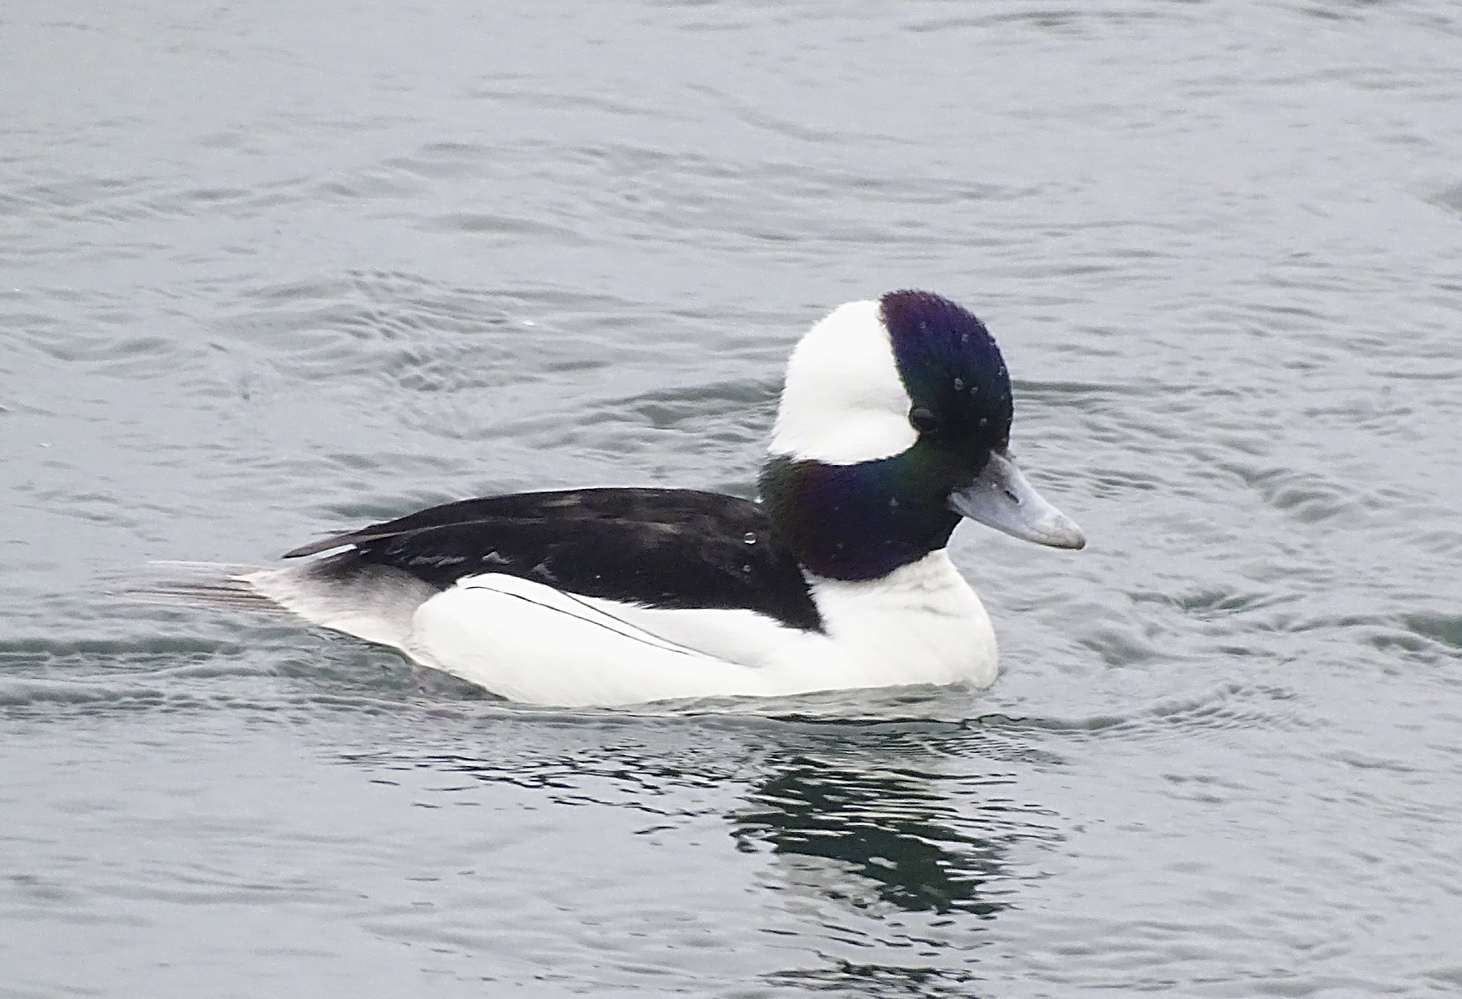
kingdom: Animalia
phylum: Chordata
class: Aves
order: Anseriformes
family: Anatidae
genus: Bucephala
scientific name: Bucephala albeola
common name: Bufflehead
